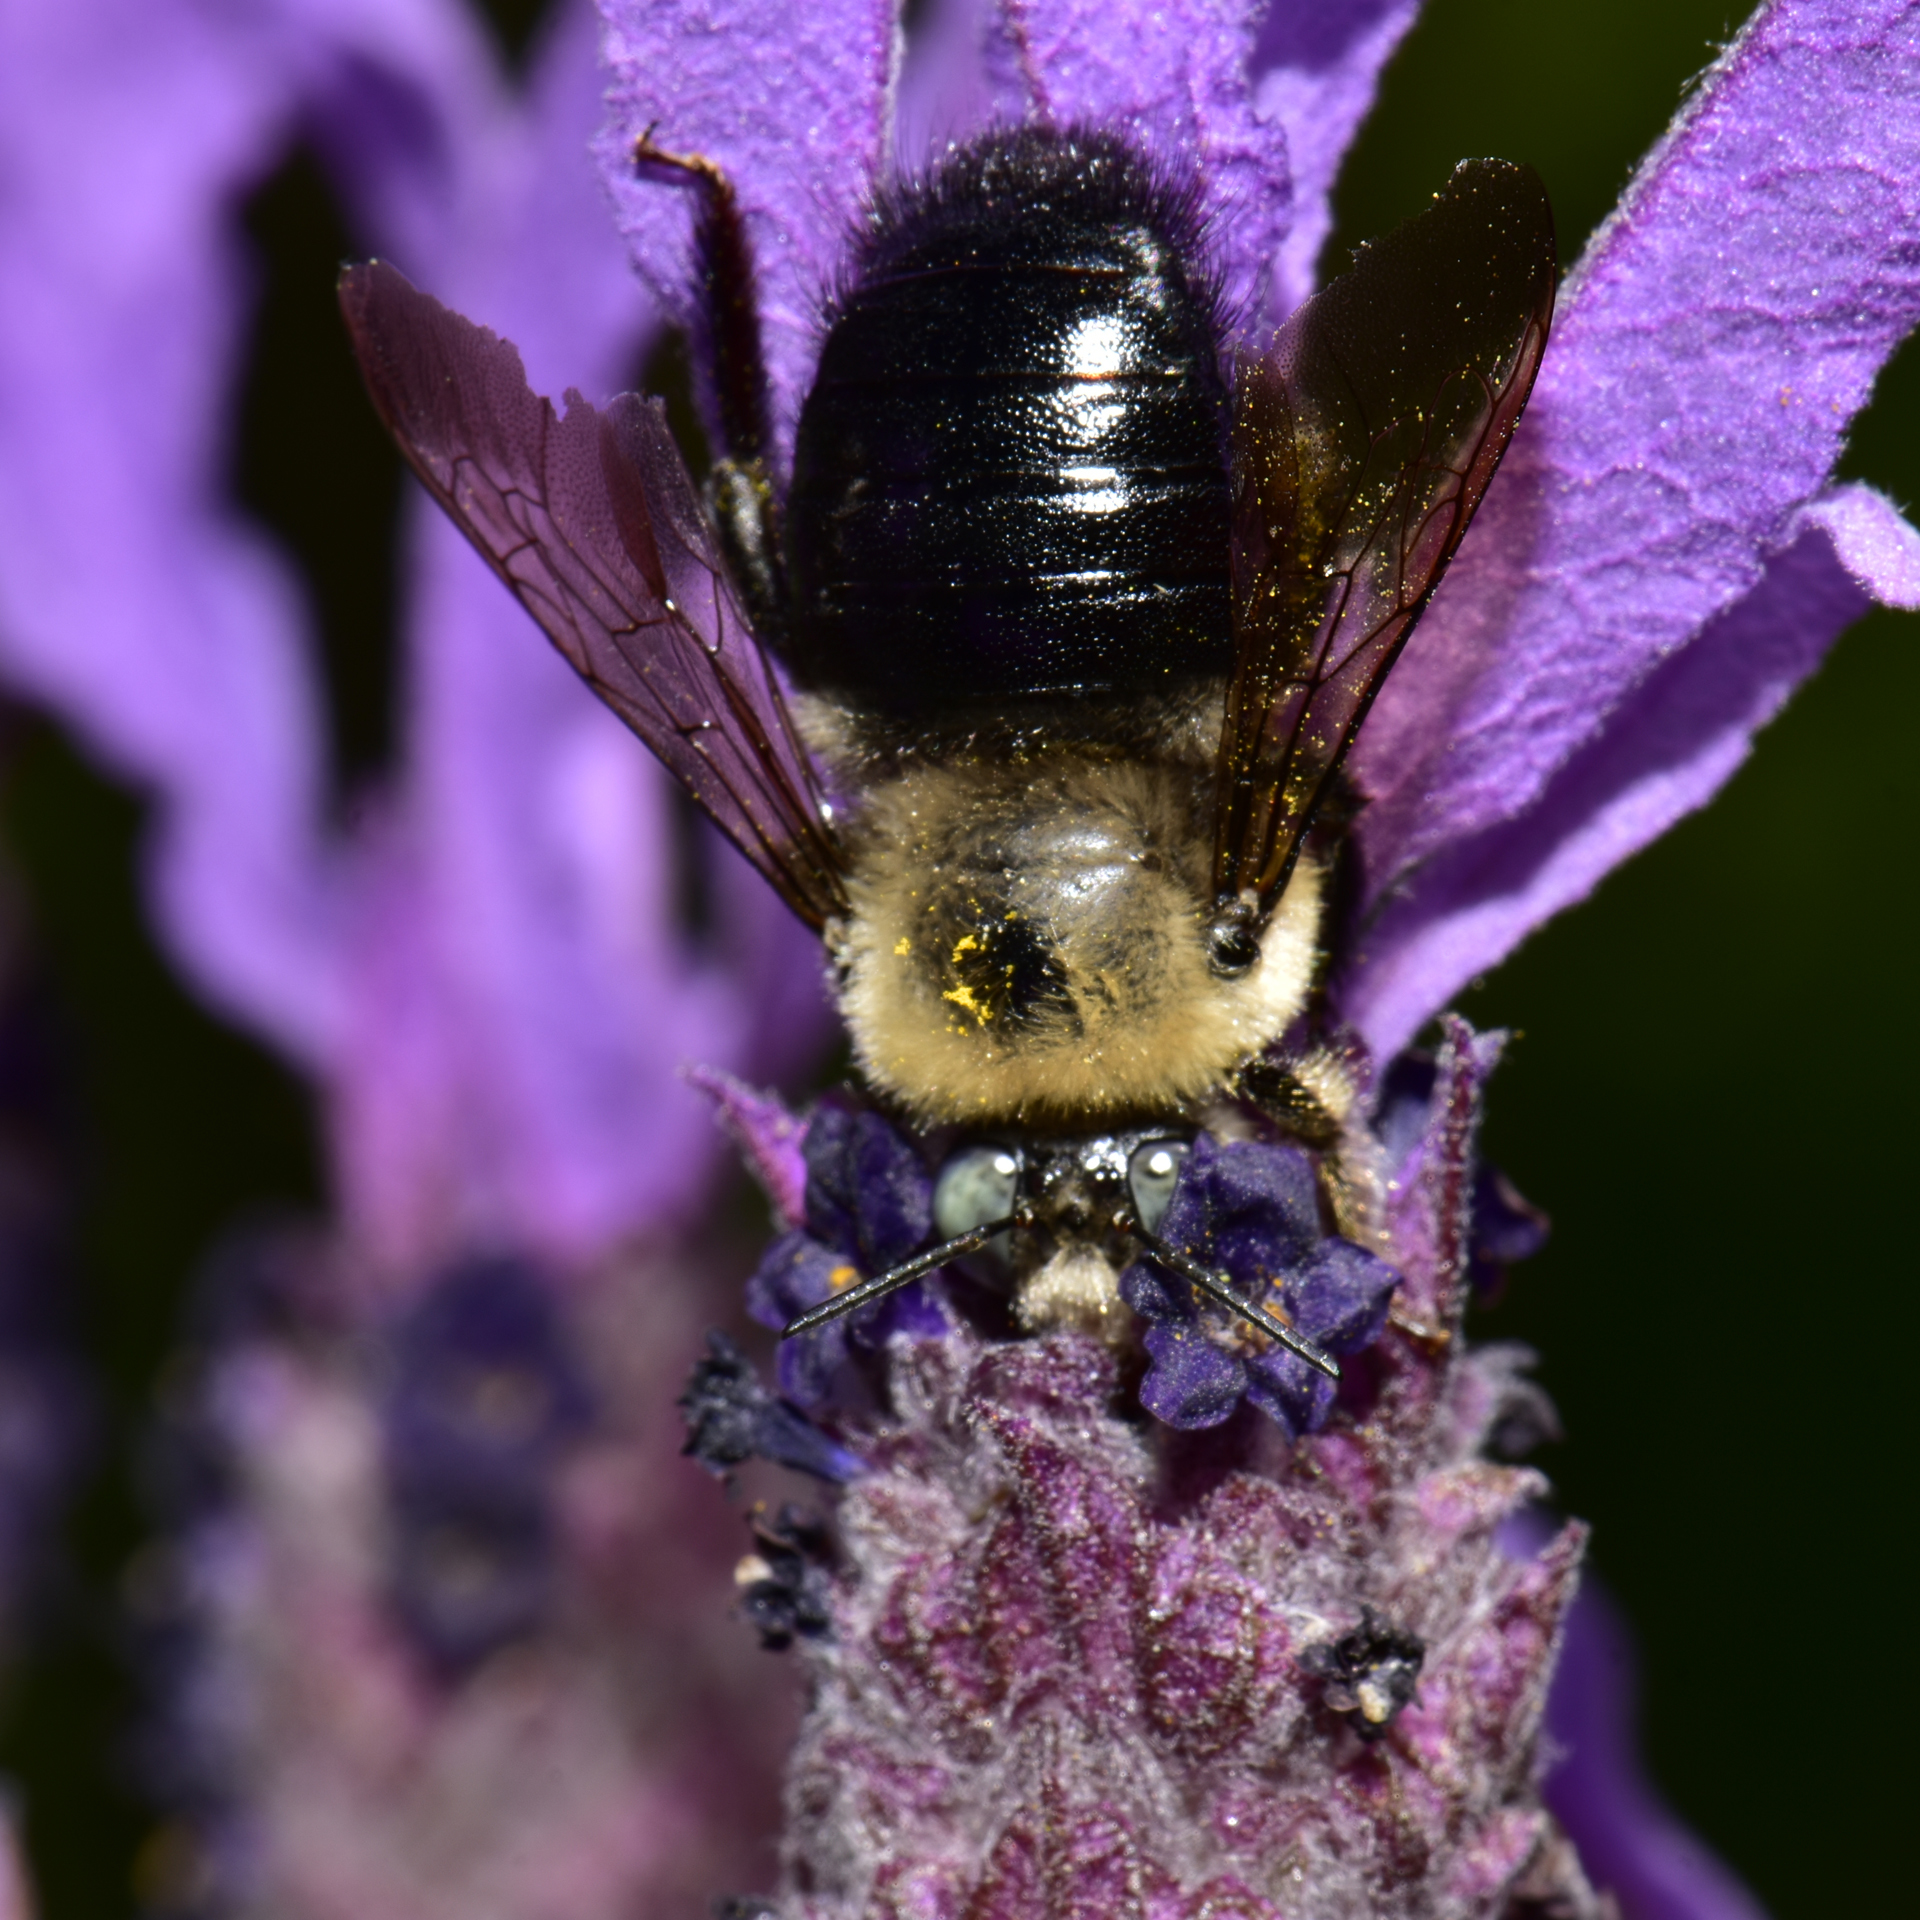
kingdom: Animalia
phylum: Arthropoda
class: Insecta
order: Hymenoptera
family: Apidae
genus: Xylocopa
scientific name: Xylocopa tabaniformis
